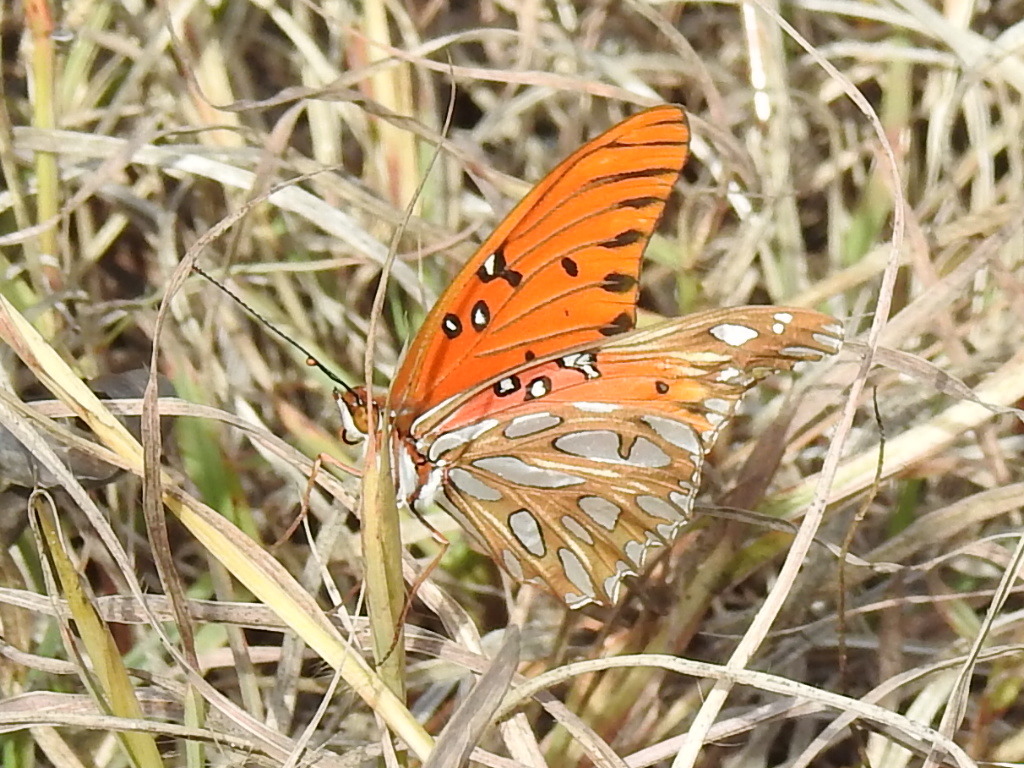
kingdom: Animalia
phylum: Arthropoda
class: Insecta
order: Lepidoptera
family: Nymphalidae
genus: Dione
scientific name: Dione vanillae
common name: Gulf fritillary
